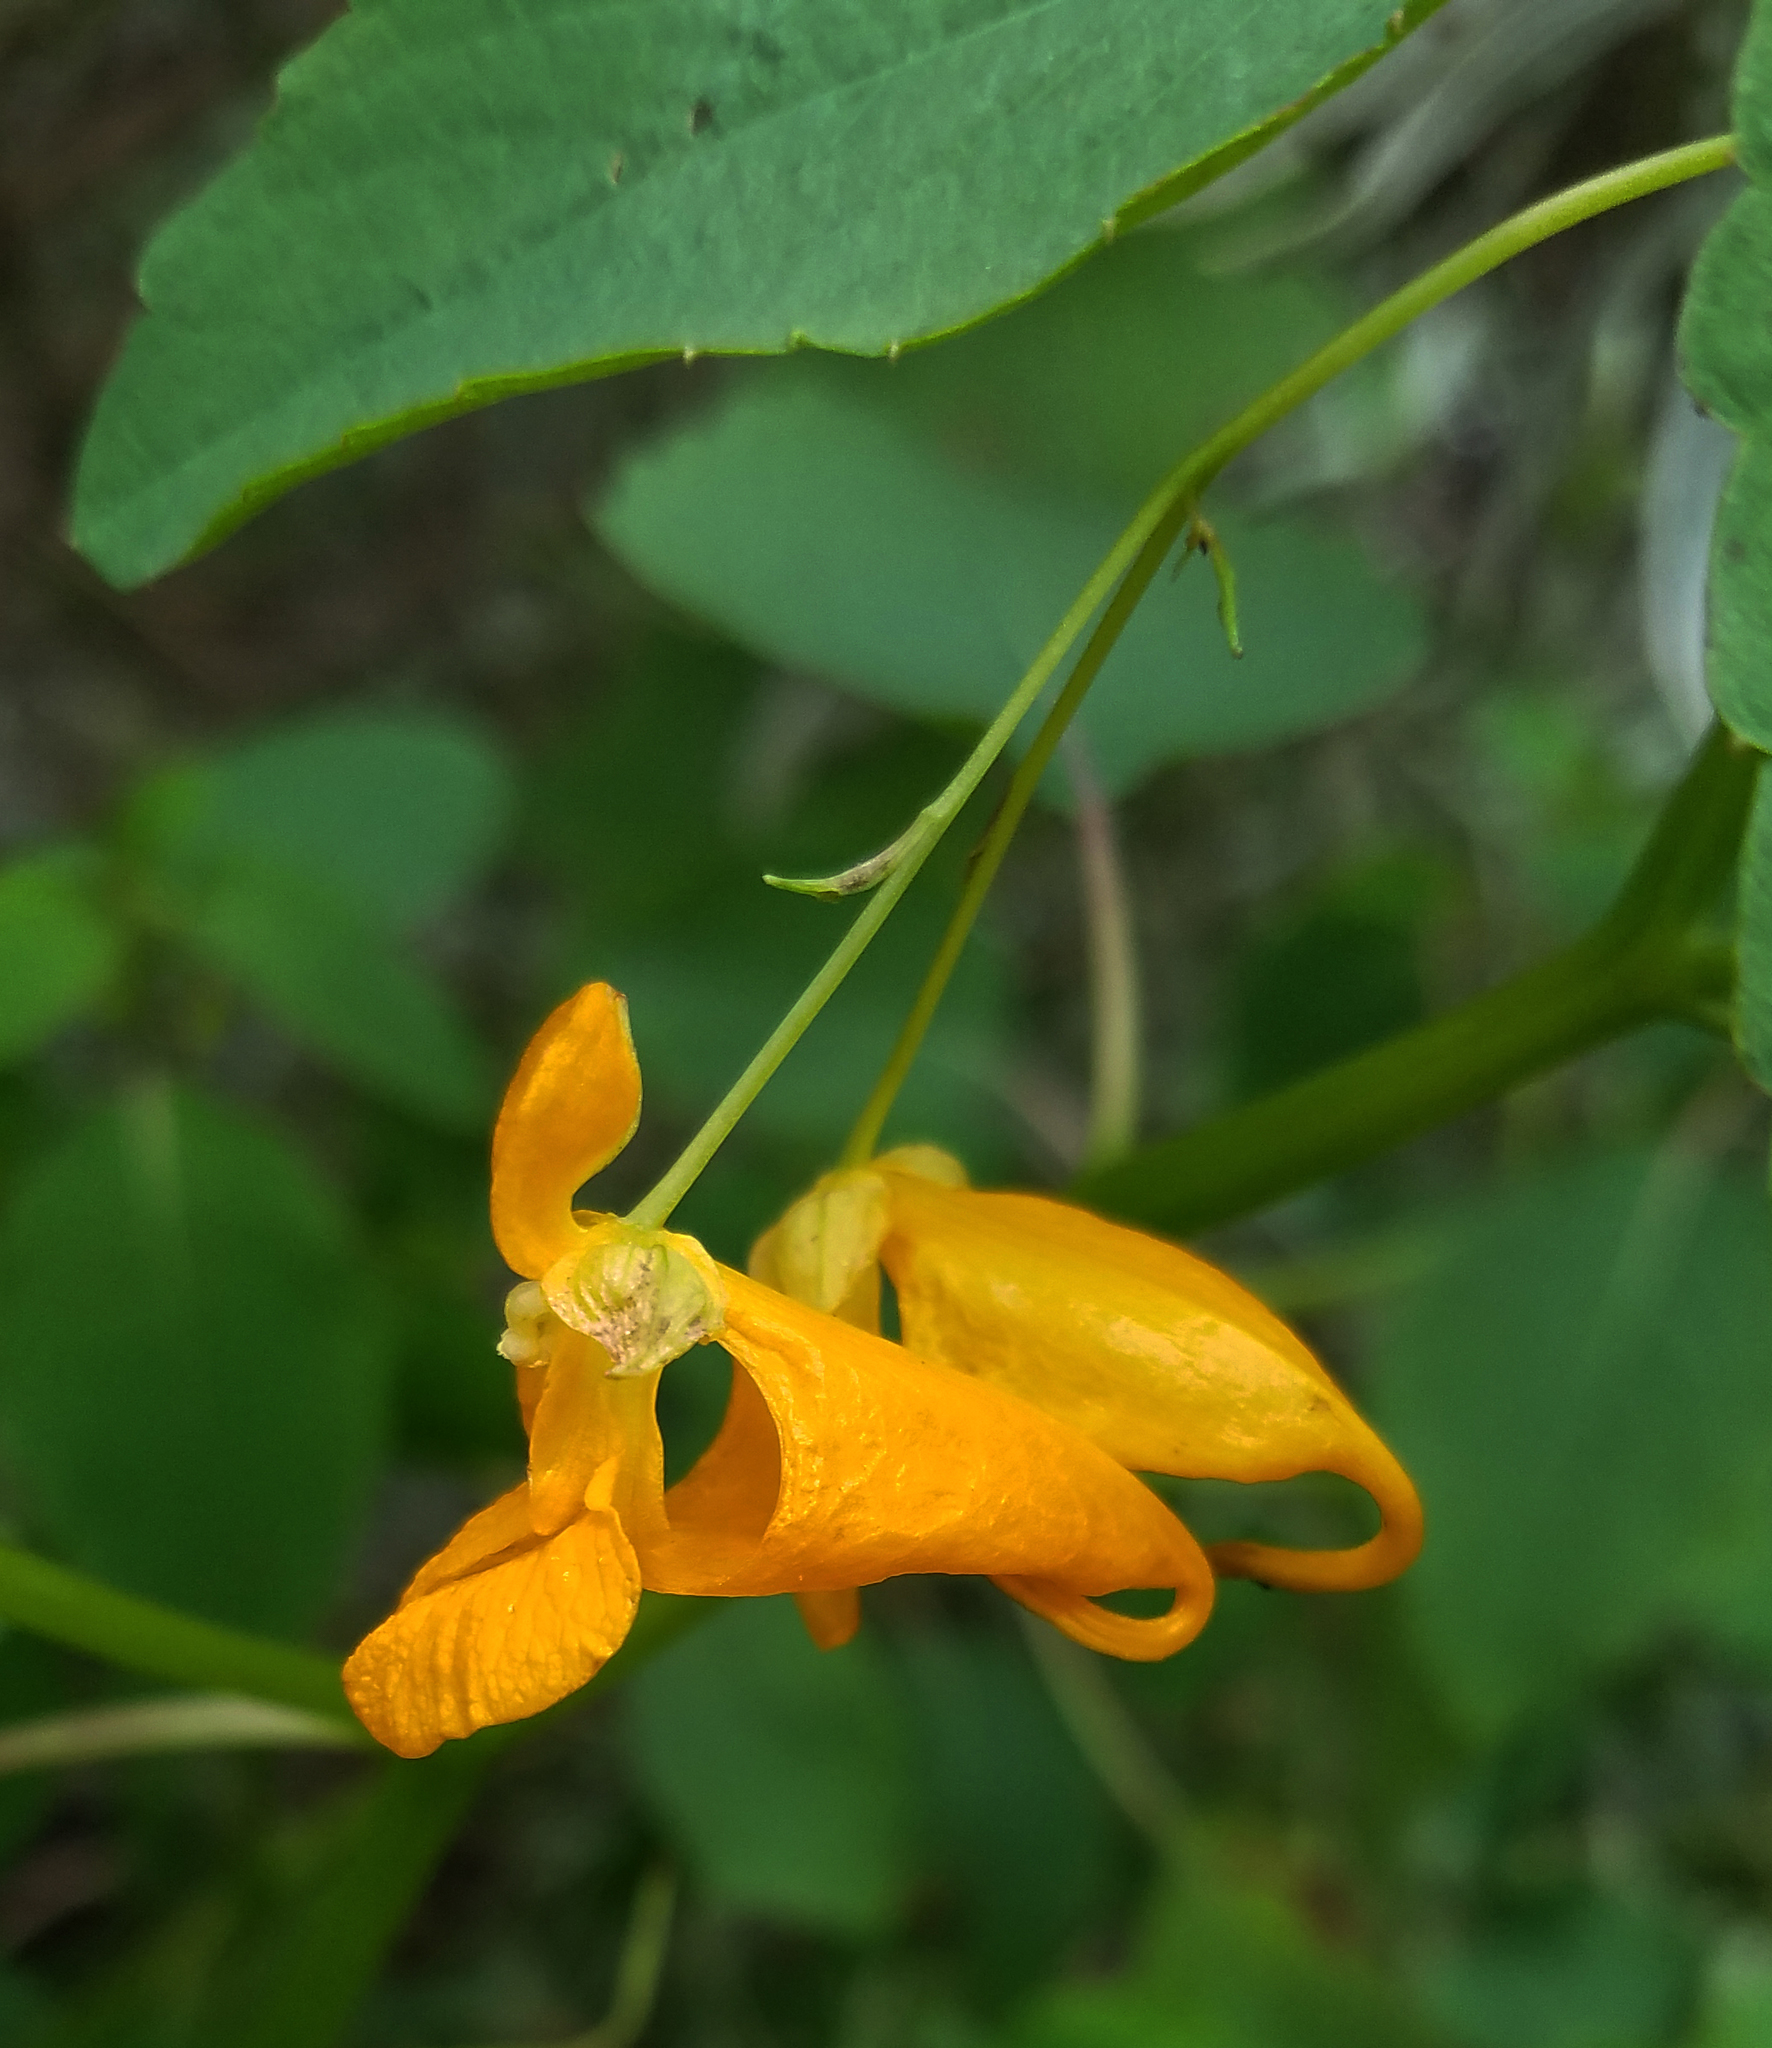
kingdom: Plantae
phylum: Tracheophyta
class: Magnoliopsida
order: Ericales
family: Balsaminaceae
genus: Impatiens
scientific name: Impatiens capensis
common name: Orange balsam
